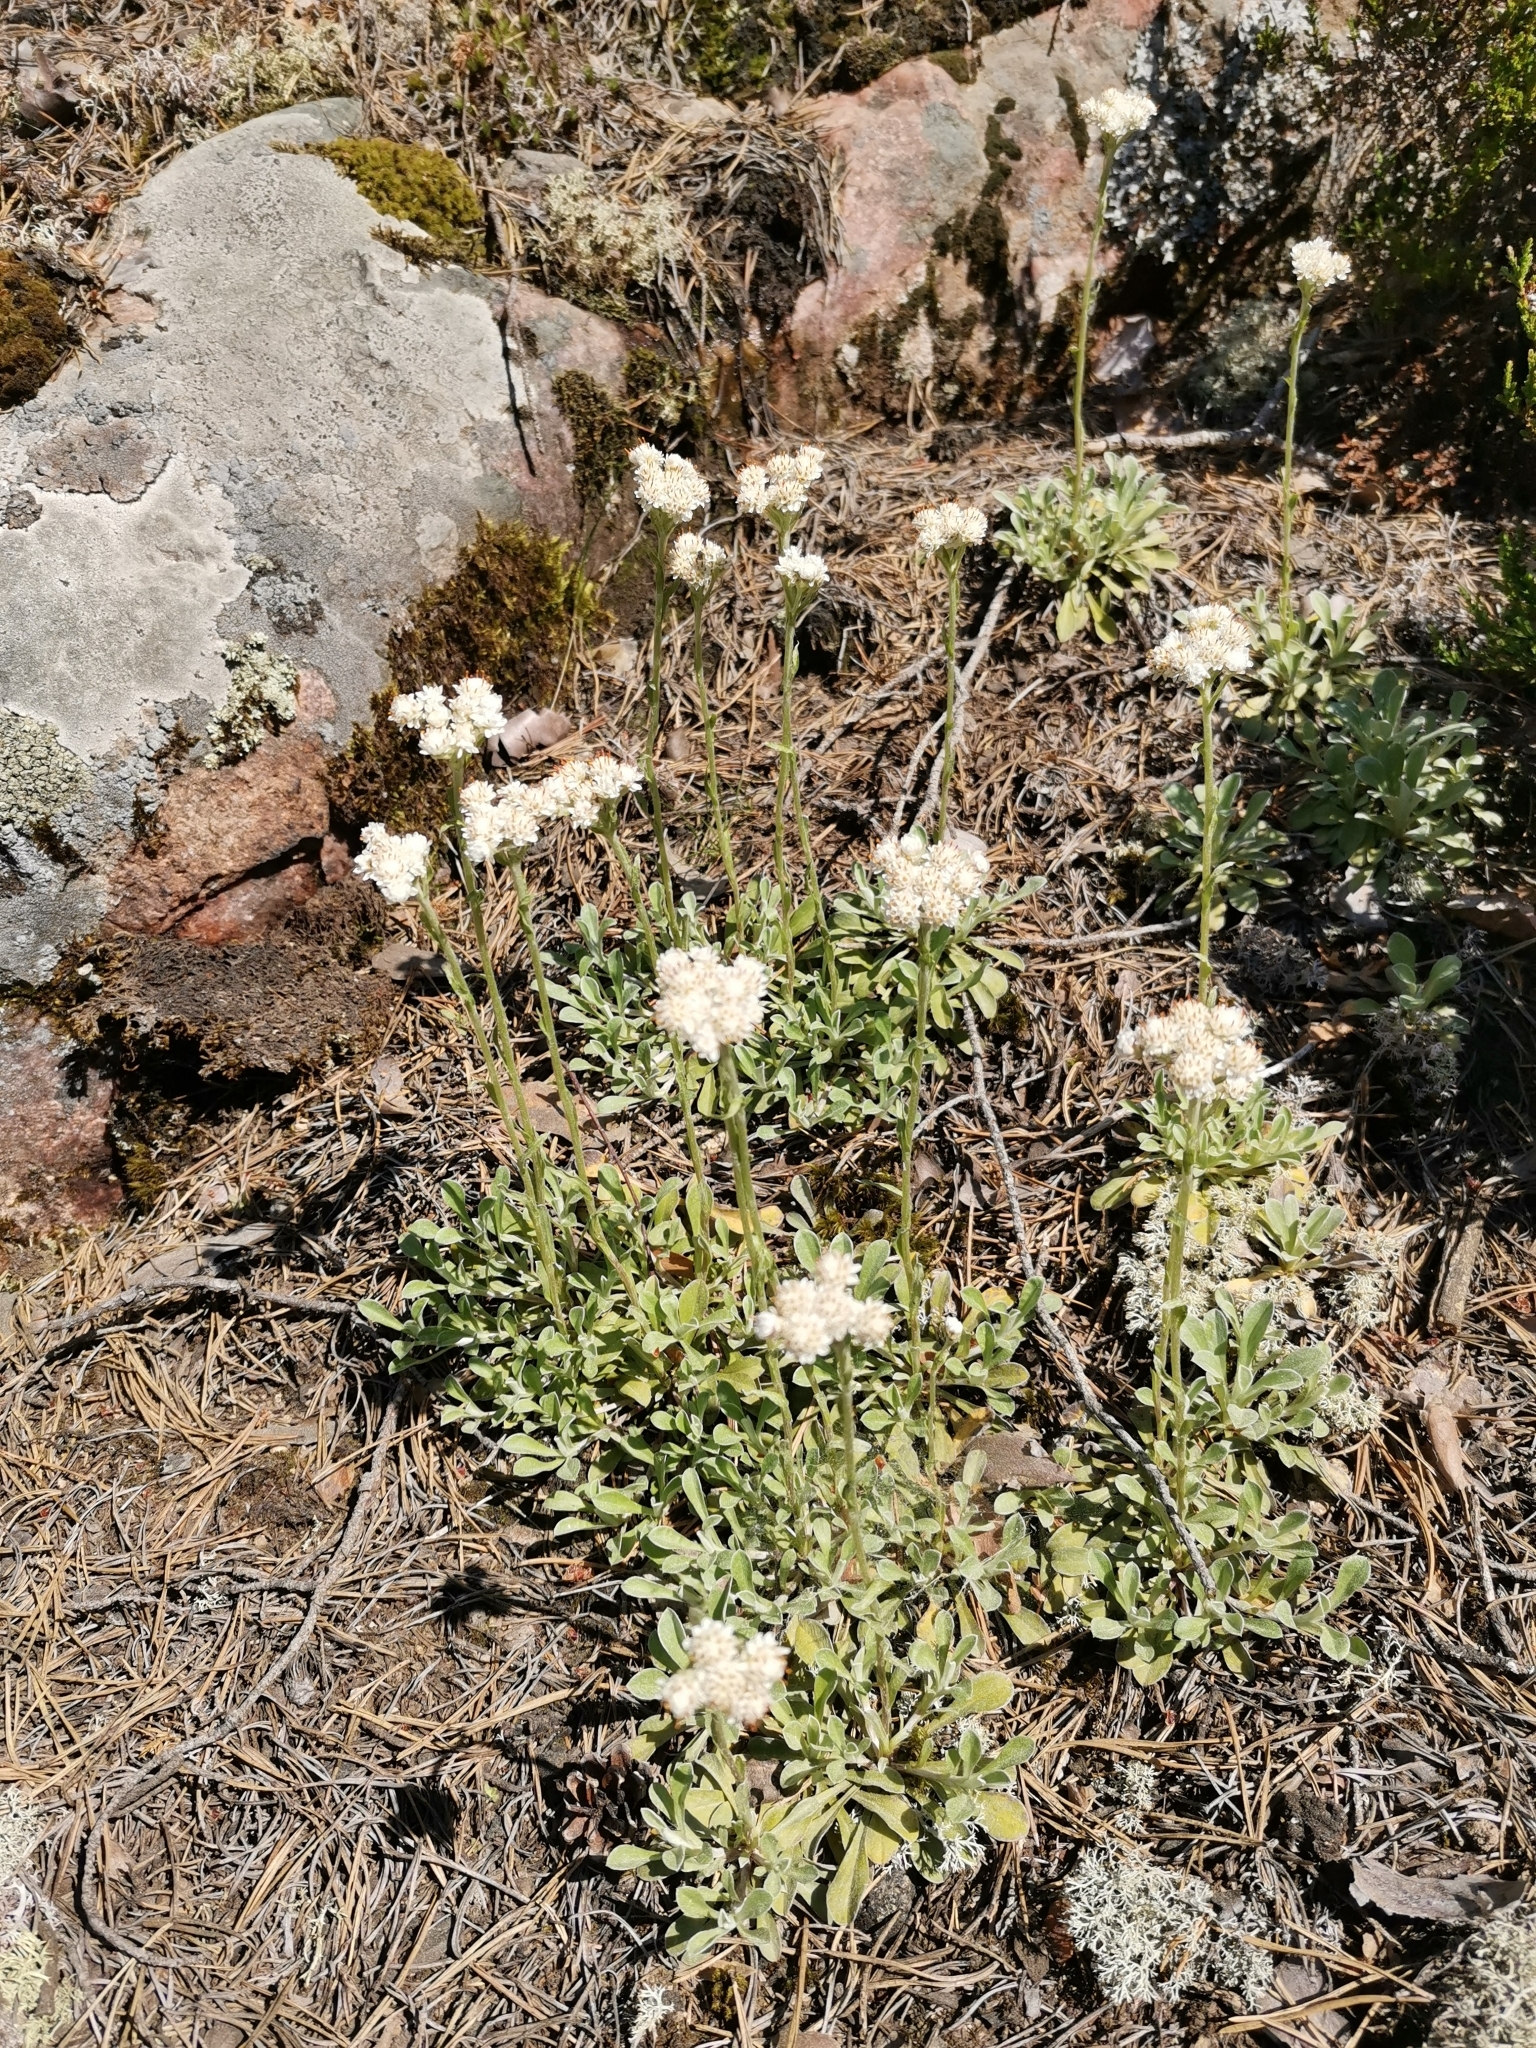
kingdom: Plantae
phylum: Tracheophyta
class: Magnoliopsida
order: Asterales
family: Asteraceae
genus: Antennaria
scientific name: Antennaria dioica
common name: Mountain everlasting
